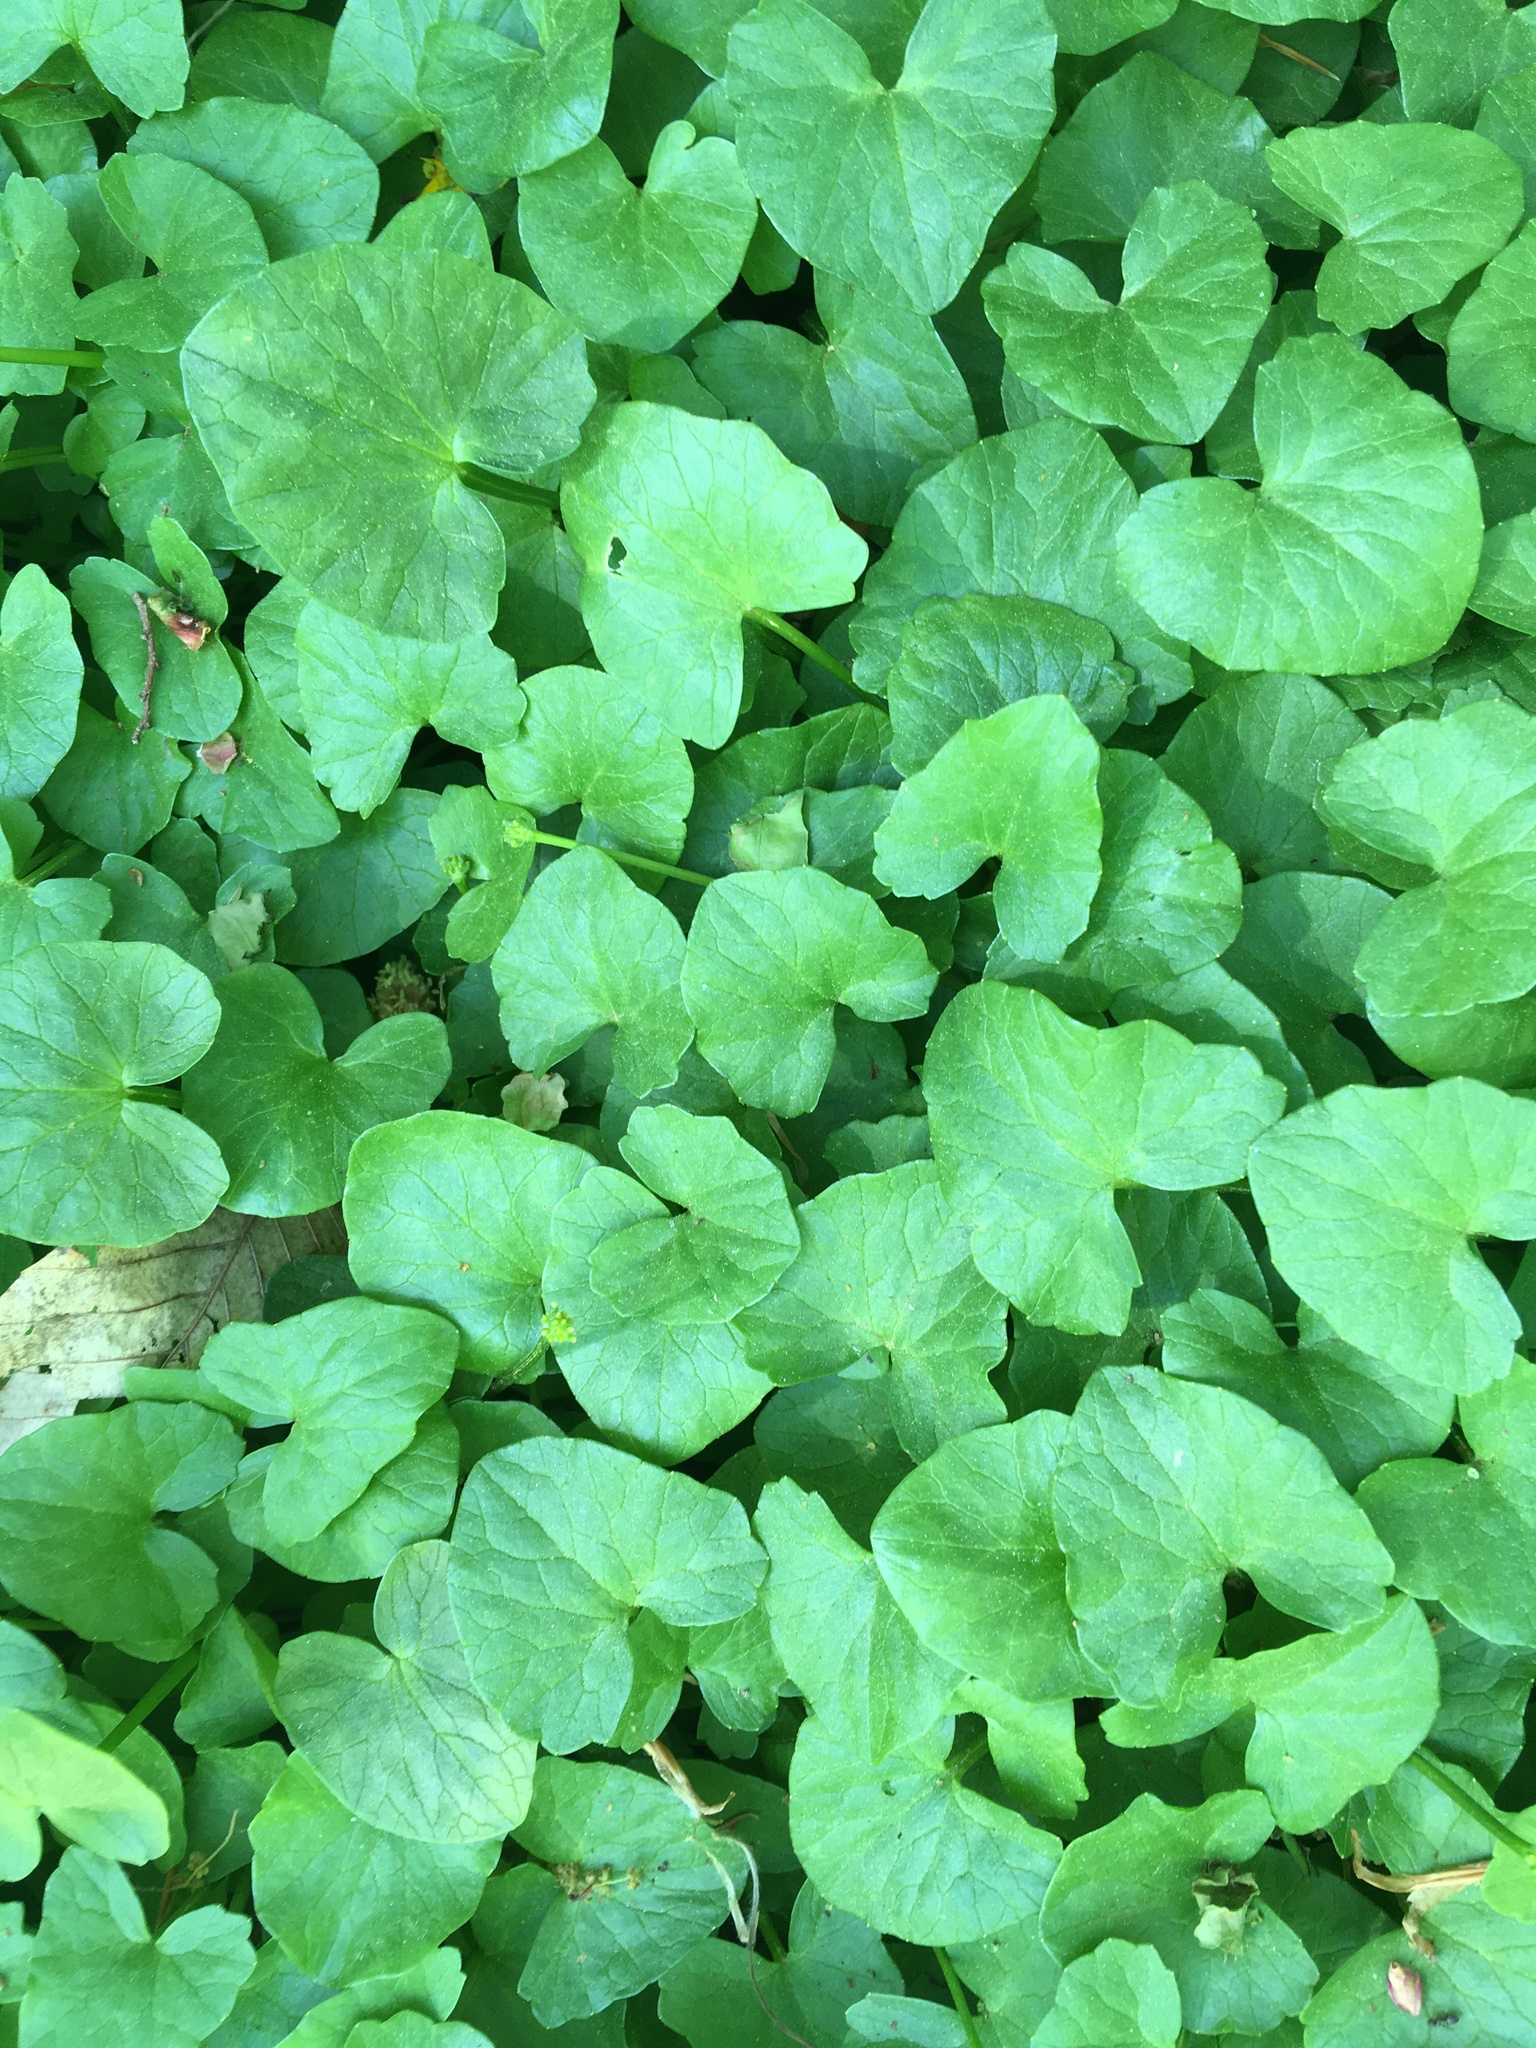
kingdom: Plantae
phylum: Tracheophyta
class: Magnoliopsida
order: Ranunculales
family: Ranunculaceae
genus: Ficaria
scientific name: Ficaria verna
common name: Lesser celandine
